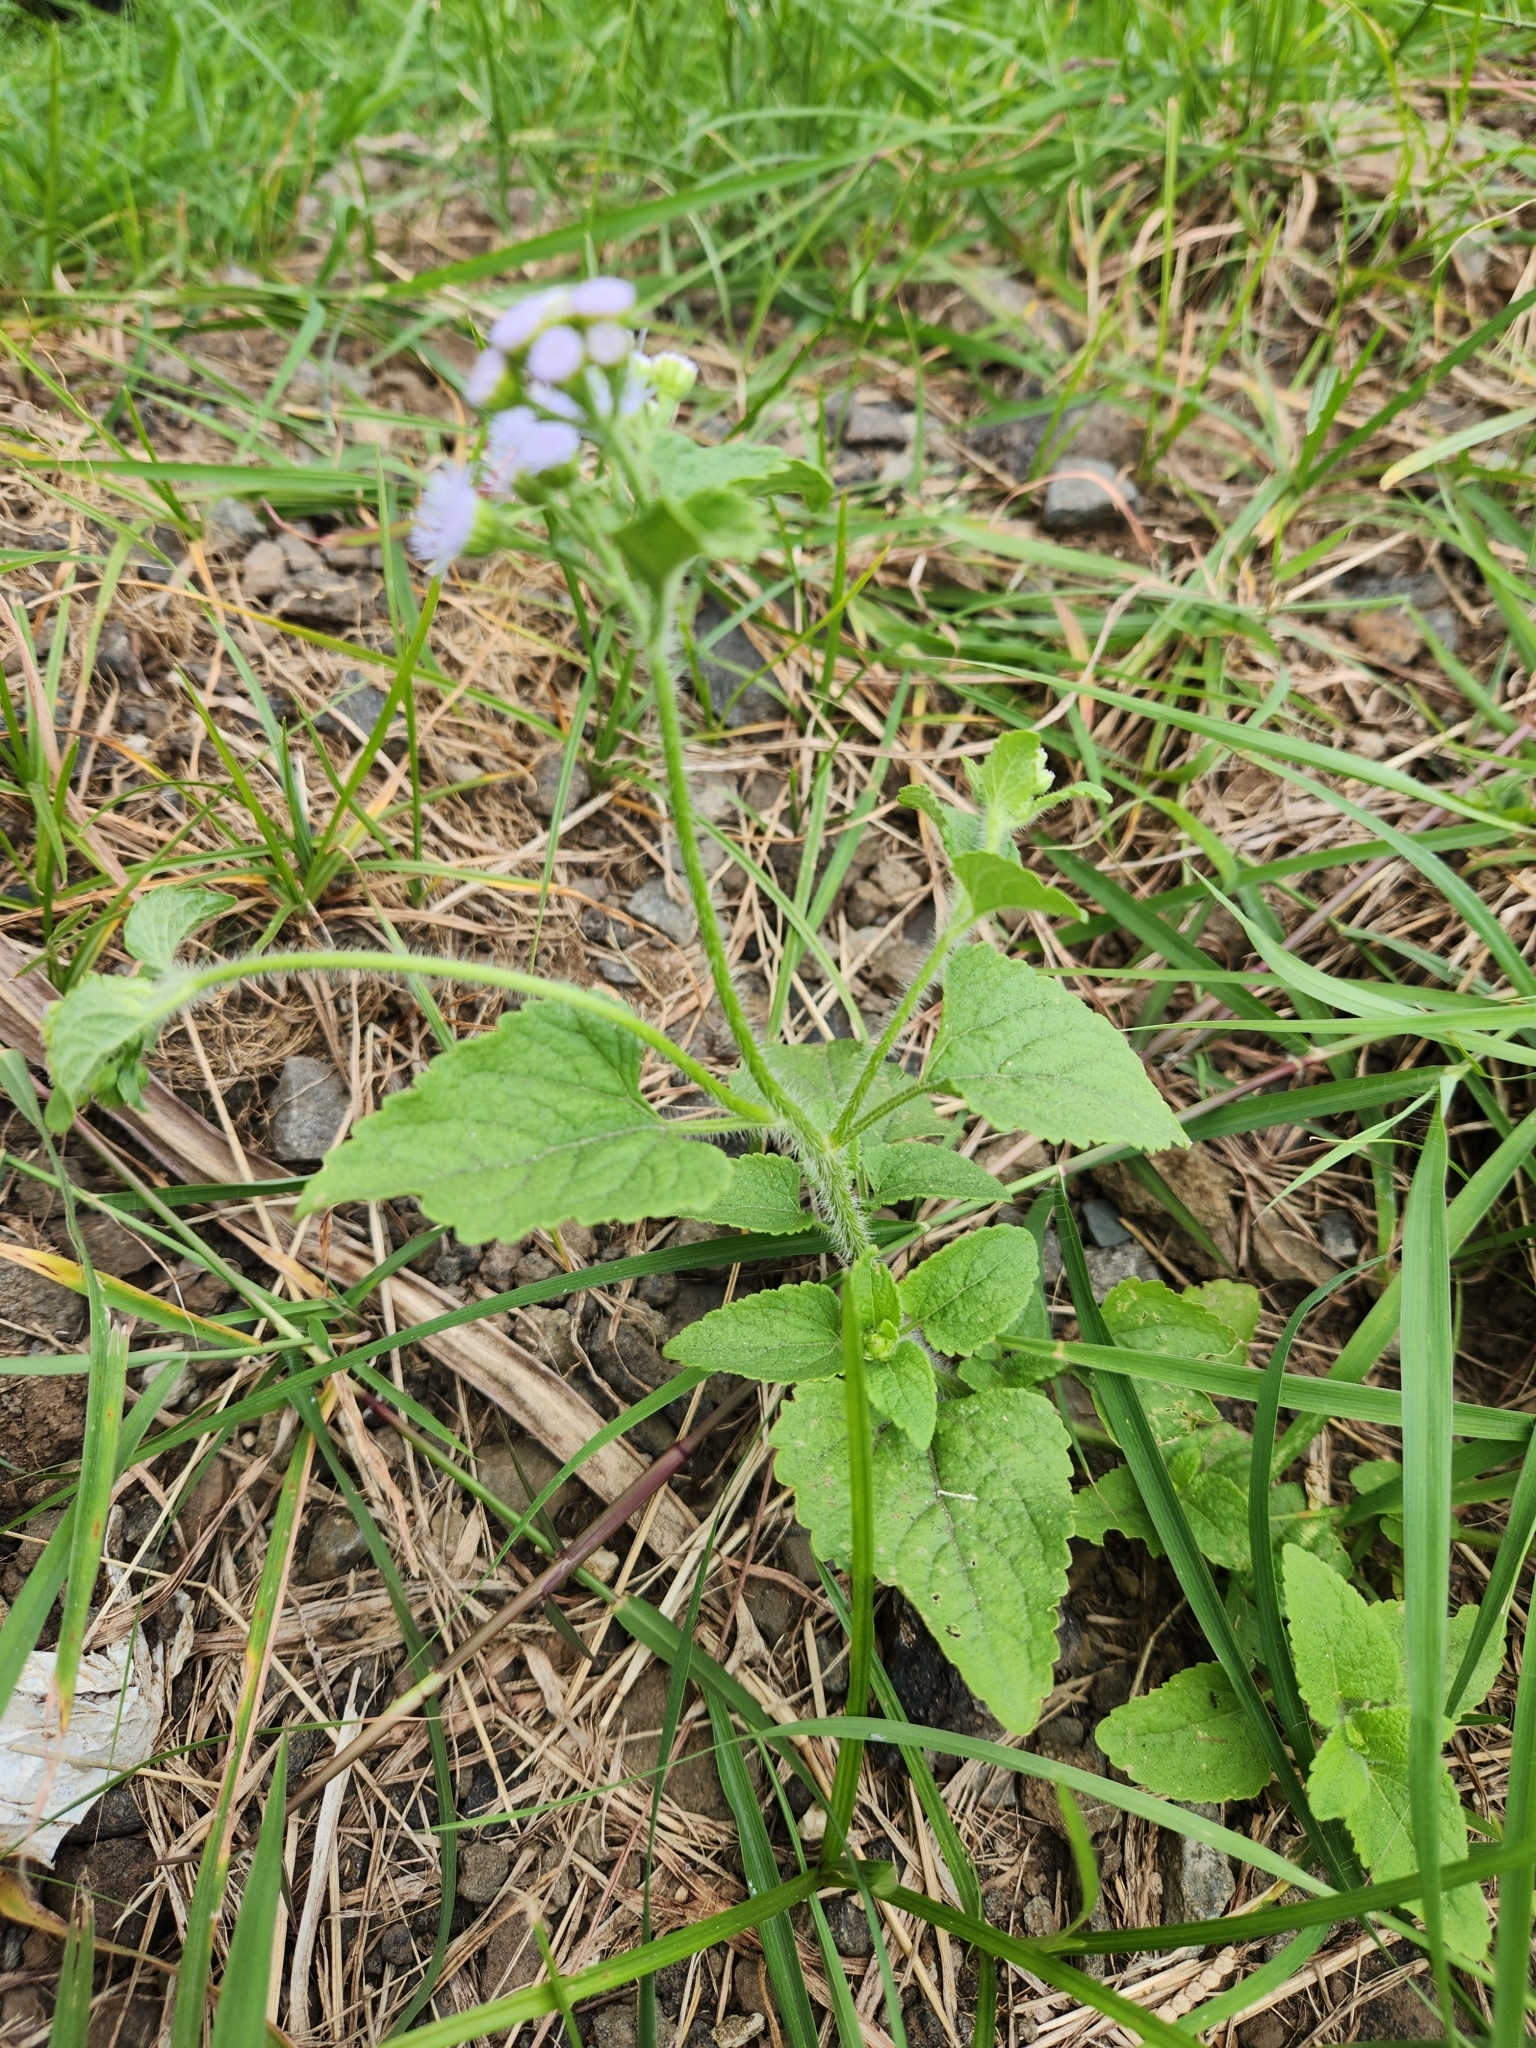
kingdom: Plantae
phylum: Tracheophyta
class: Magnoliopsida
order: Asterales
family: Asteraceae
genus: Ageratum
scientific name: Ageratum houstonianum
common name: Bluemink
